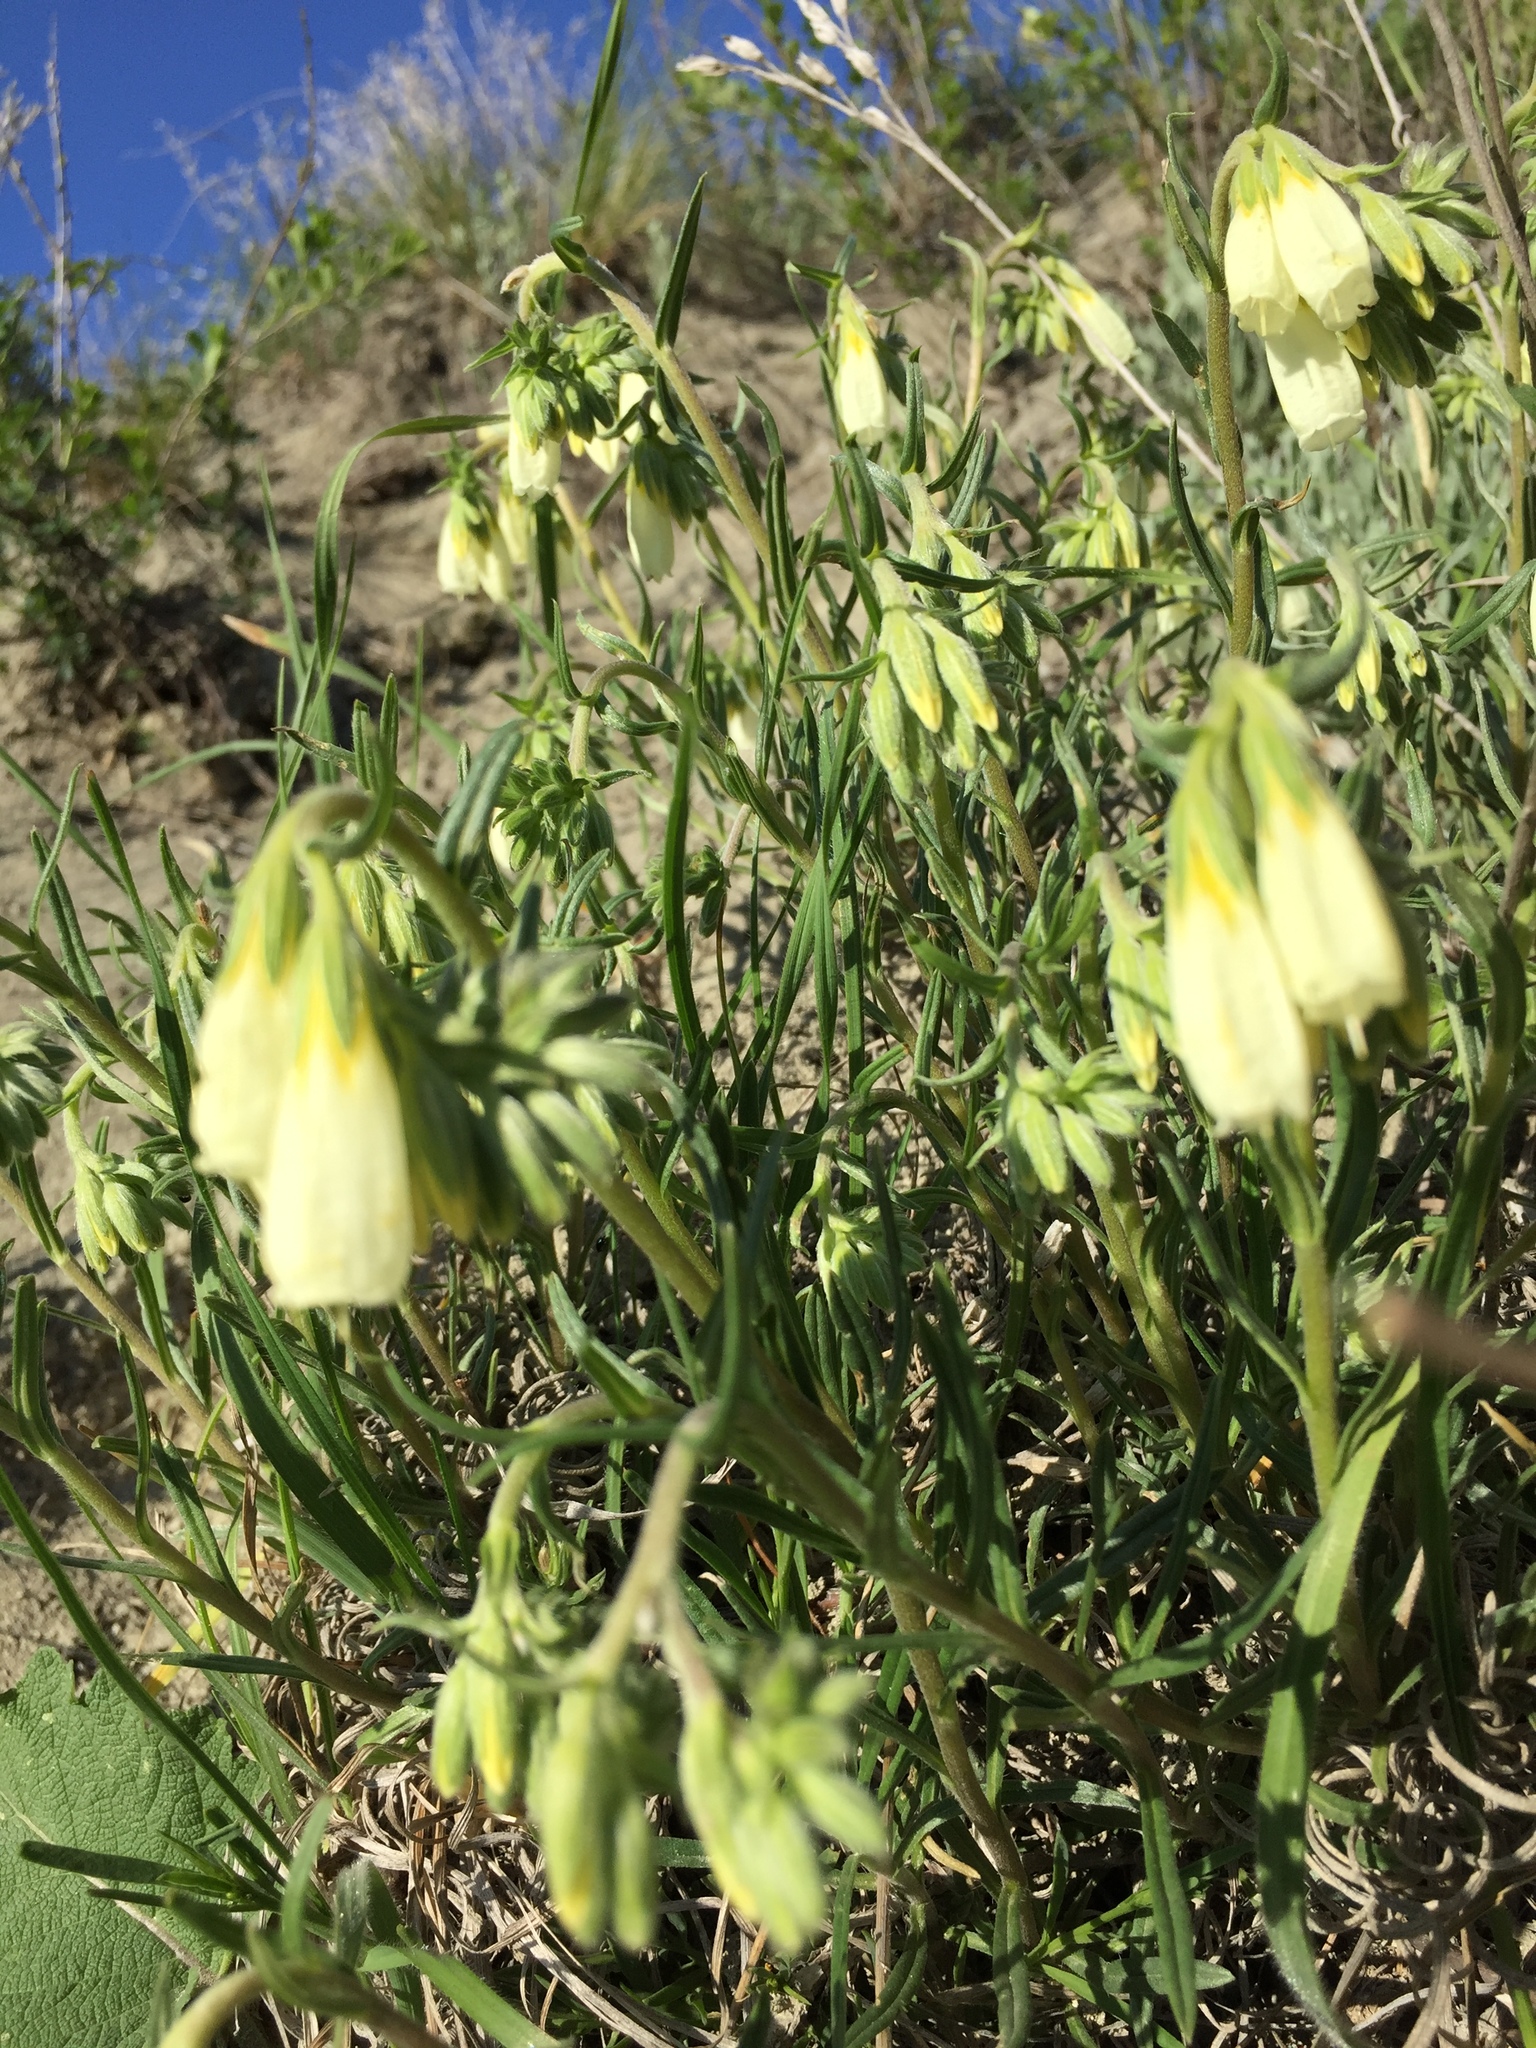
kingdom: Plantae
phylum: Tracheophyta
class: Magnoliopsida
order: Boraginales
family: Boraginaceae
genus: Onosma
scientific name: Onosma simplicissima
